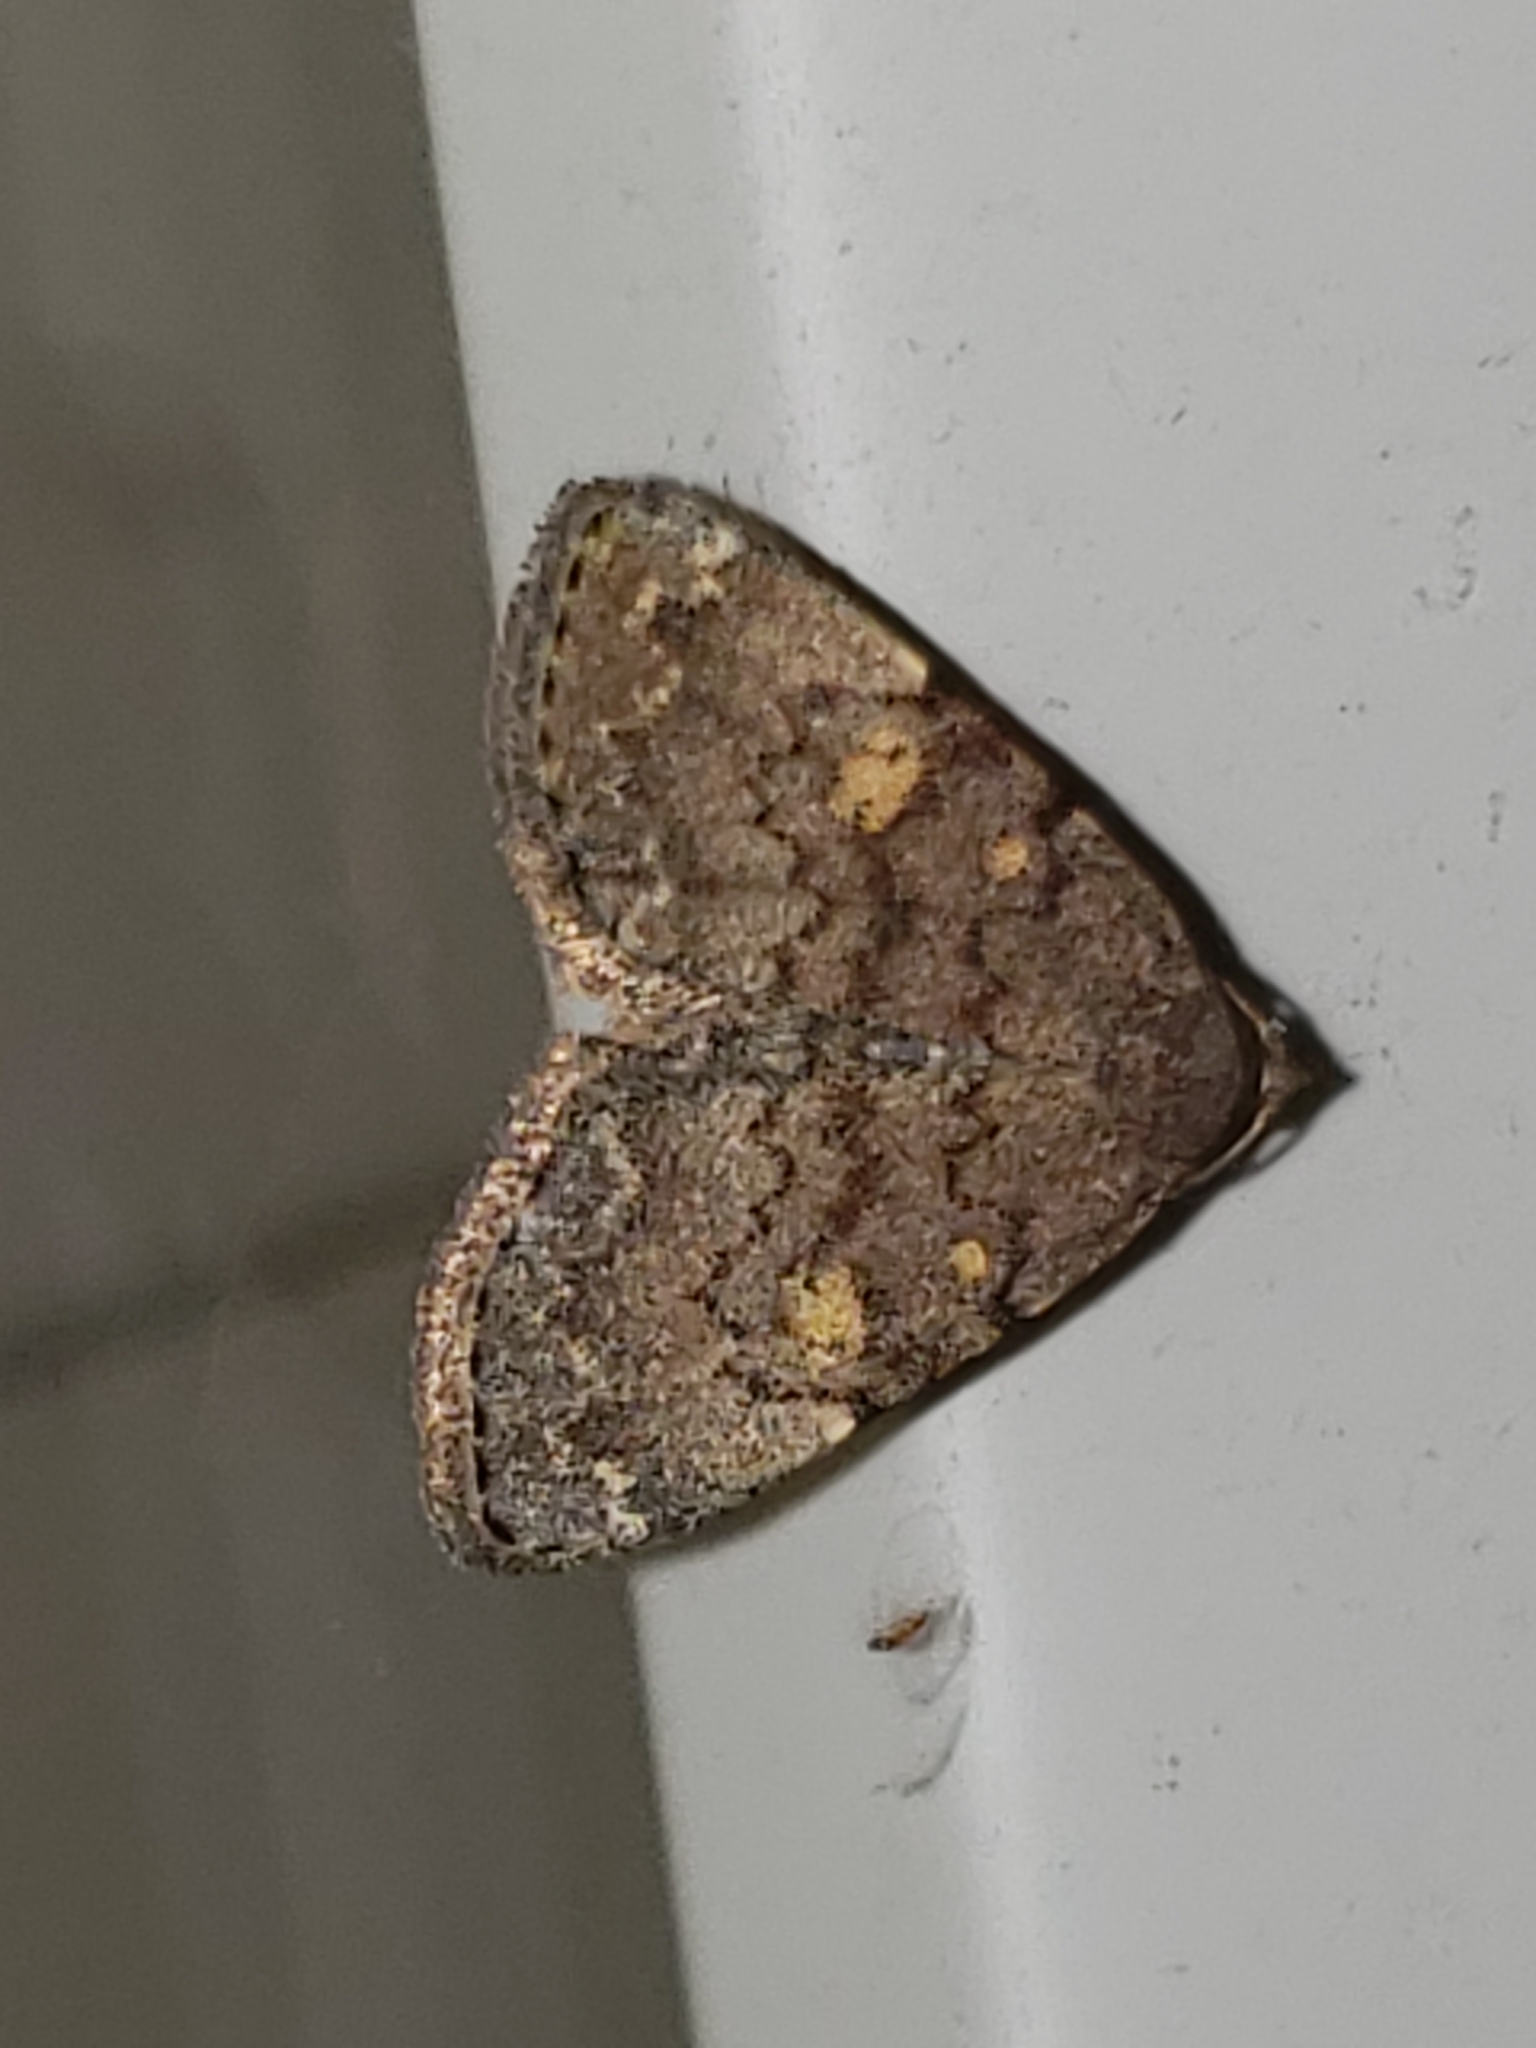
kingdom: Animalia
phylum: Arthropoda
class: Insecta
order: Lepidoptera
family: Erebidae
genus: Idia
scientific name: Idia aemula
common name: Common idia moth
